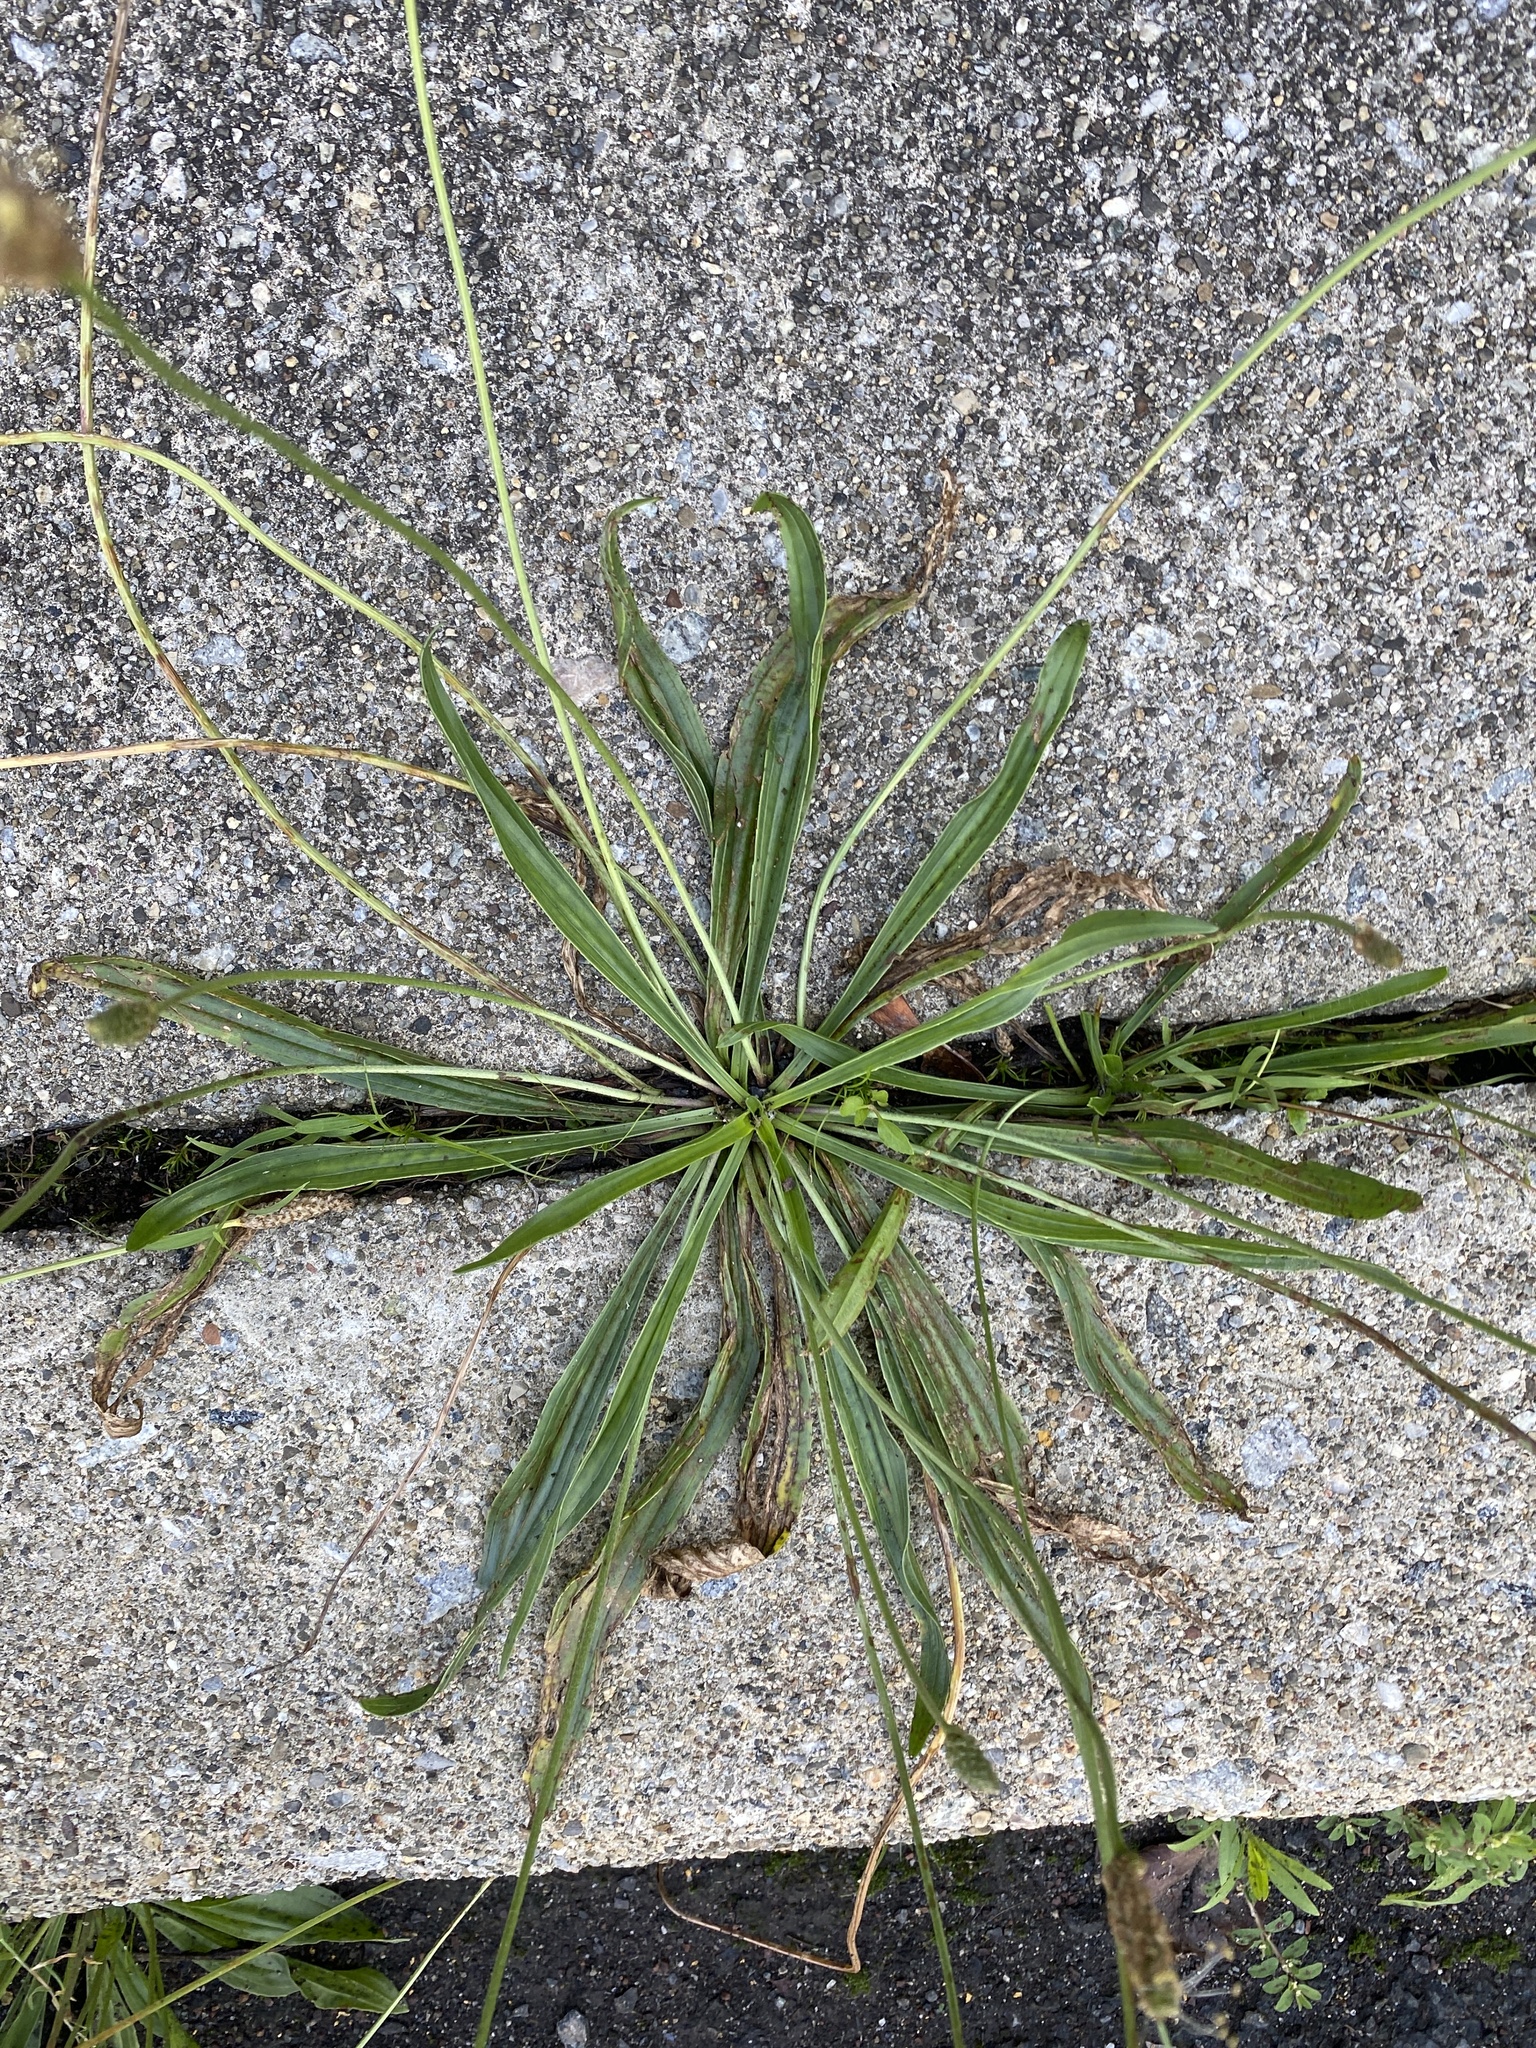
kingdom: Plantae
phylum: Tracheophyta
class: Magnoliopsida
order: Lamiales
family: Plantaginaceae
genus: Plantago
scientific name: Plantago lanceolata
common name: Ribwort plantain
